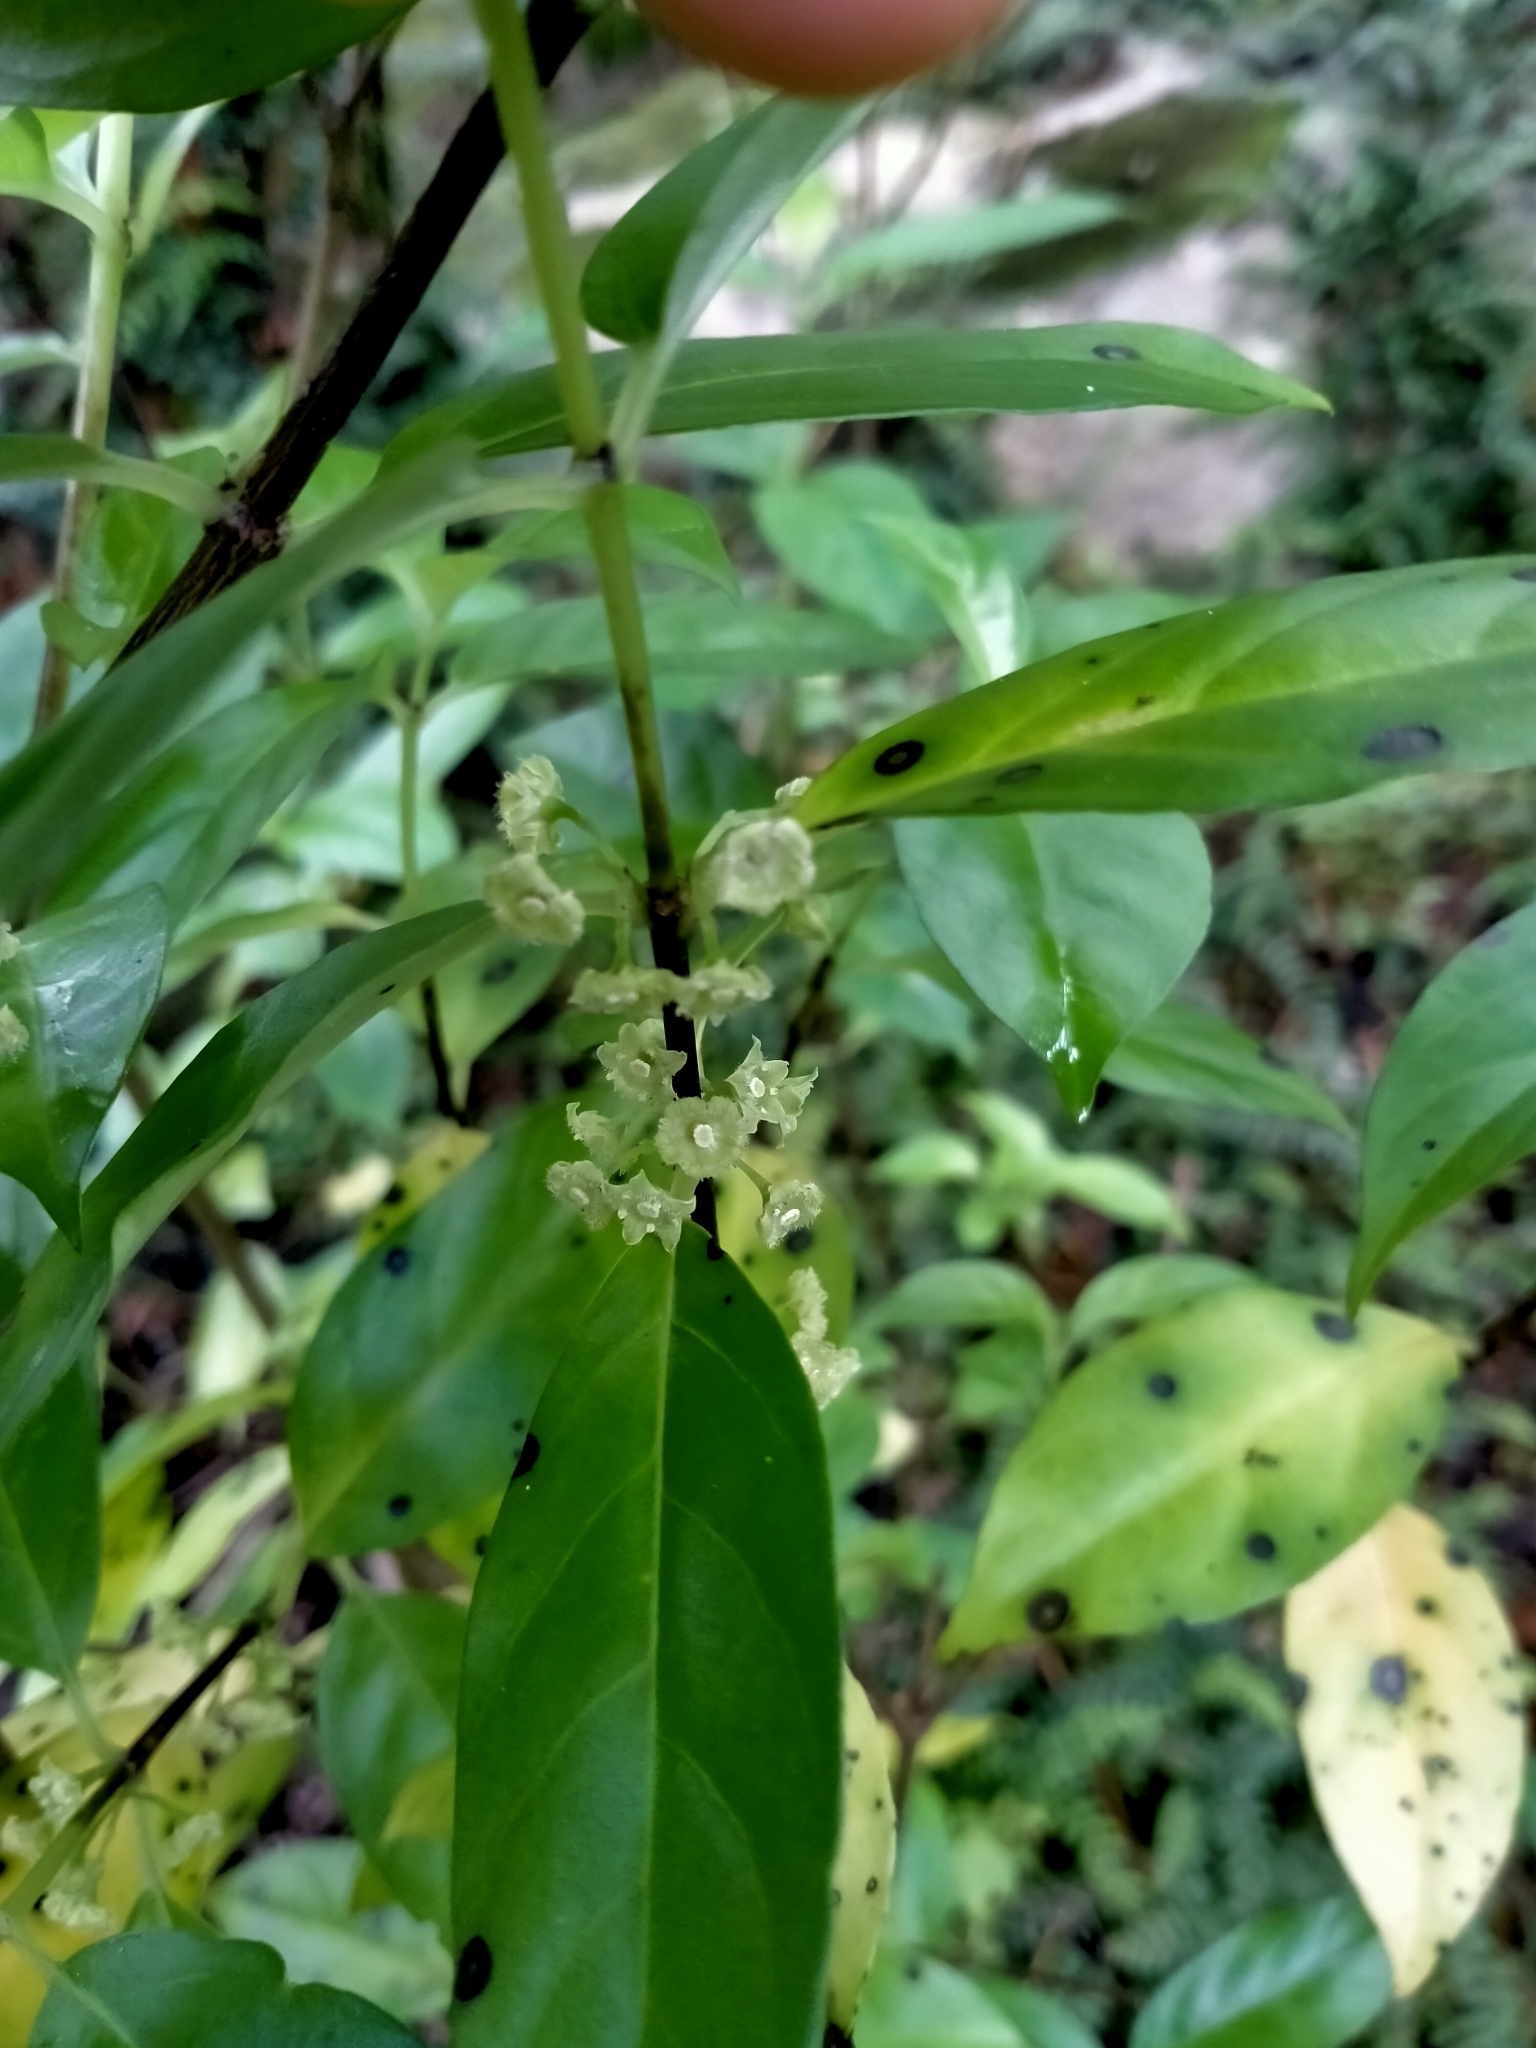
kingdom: Plantae
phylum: Tracheophyta
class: Magnoliopsida
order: Gentianales
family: Loganiaceae
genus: Geniostoma
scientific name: Geniostoma ligustrifolium
